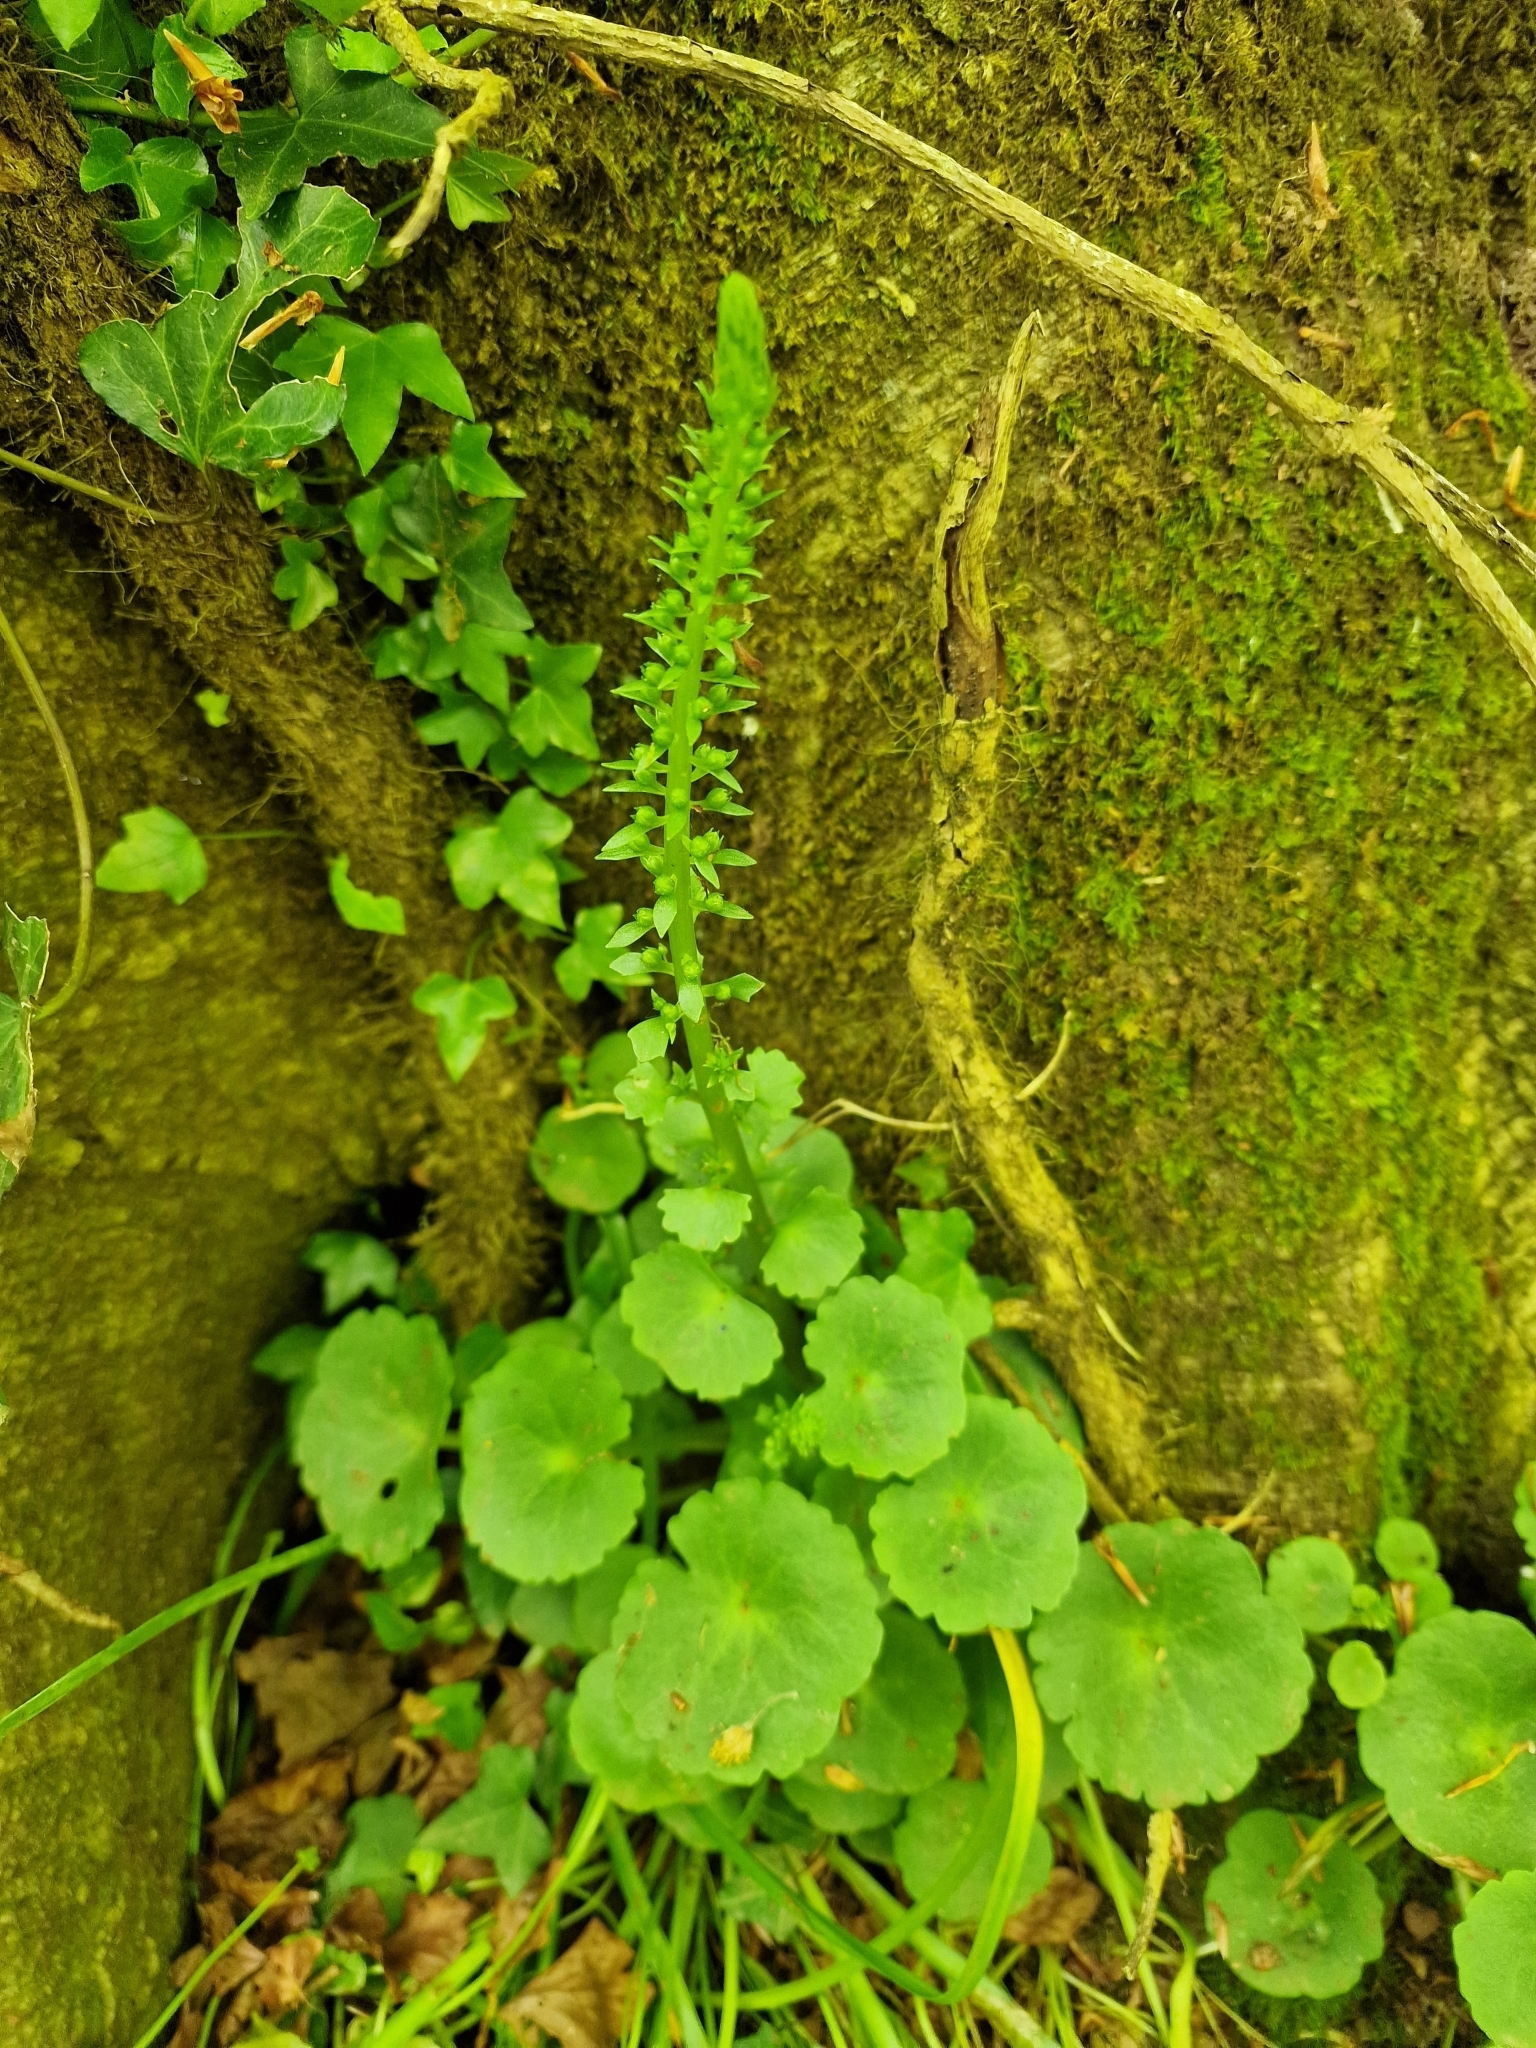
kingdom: Plantae
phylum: Tracheophyta
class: Magnoliopsida
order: Saxifragales
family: Crassulaceae
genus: Umbilicus
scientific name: Umbilicus rupestris
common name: Navelwort
